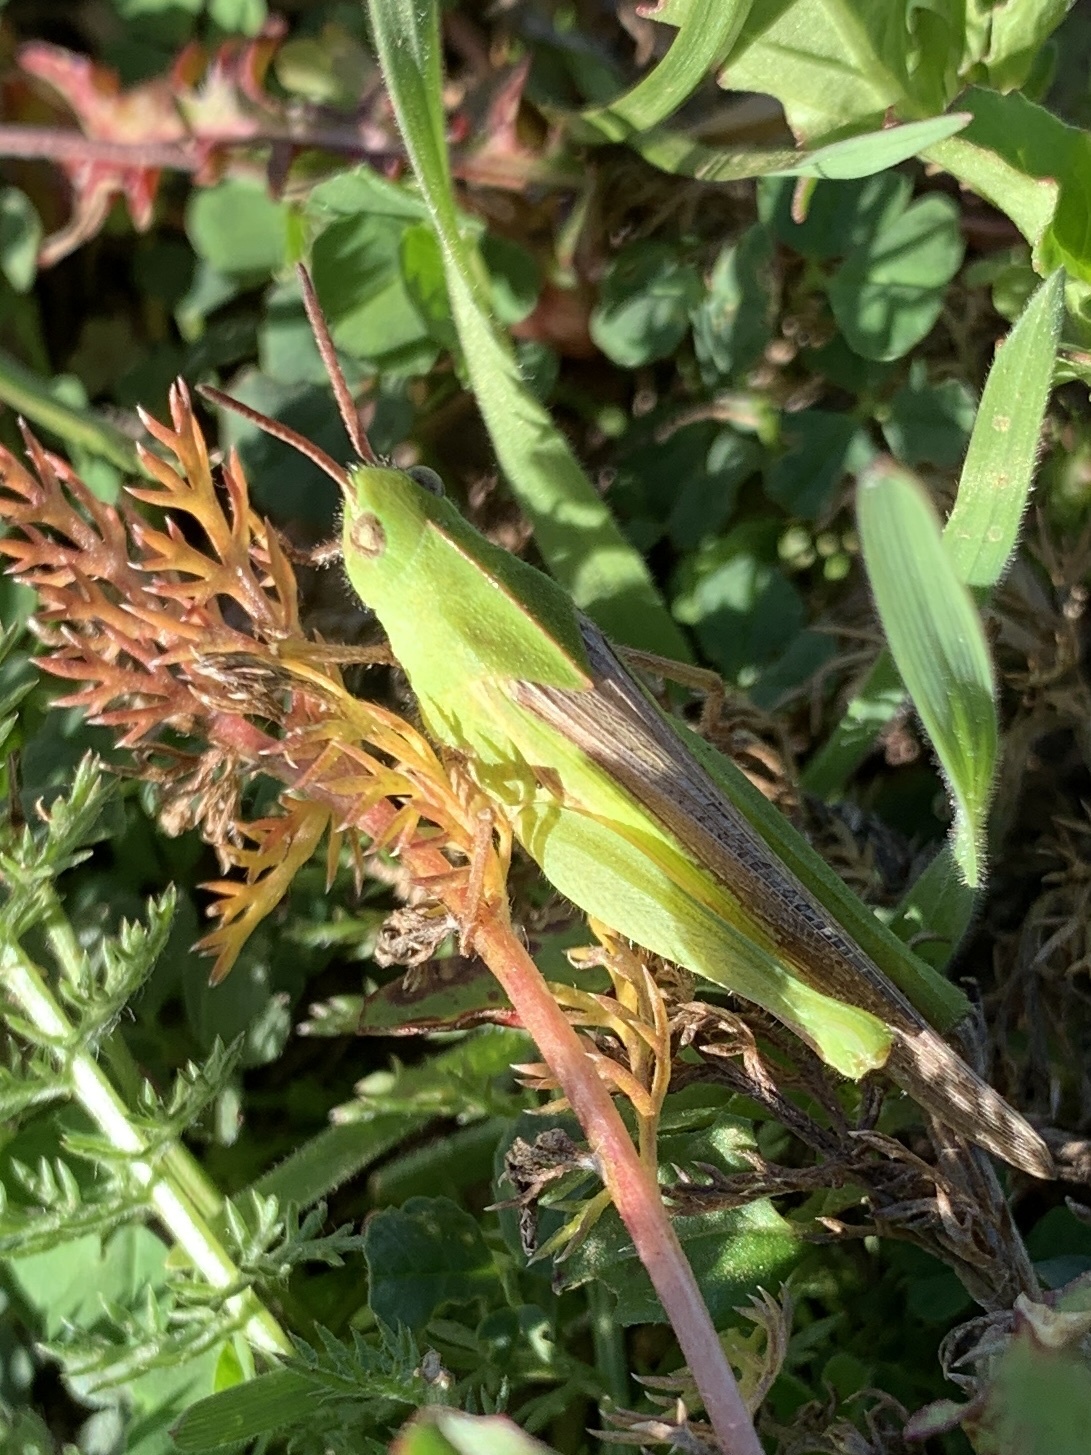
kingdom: Animalia
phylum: Arthropoda
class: Insecta
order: Orthoptera
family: Acrididae
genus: Chortophaga
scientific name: Chortophaga viridifasciata
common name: Green-striped grasshopper
